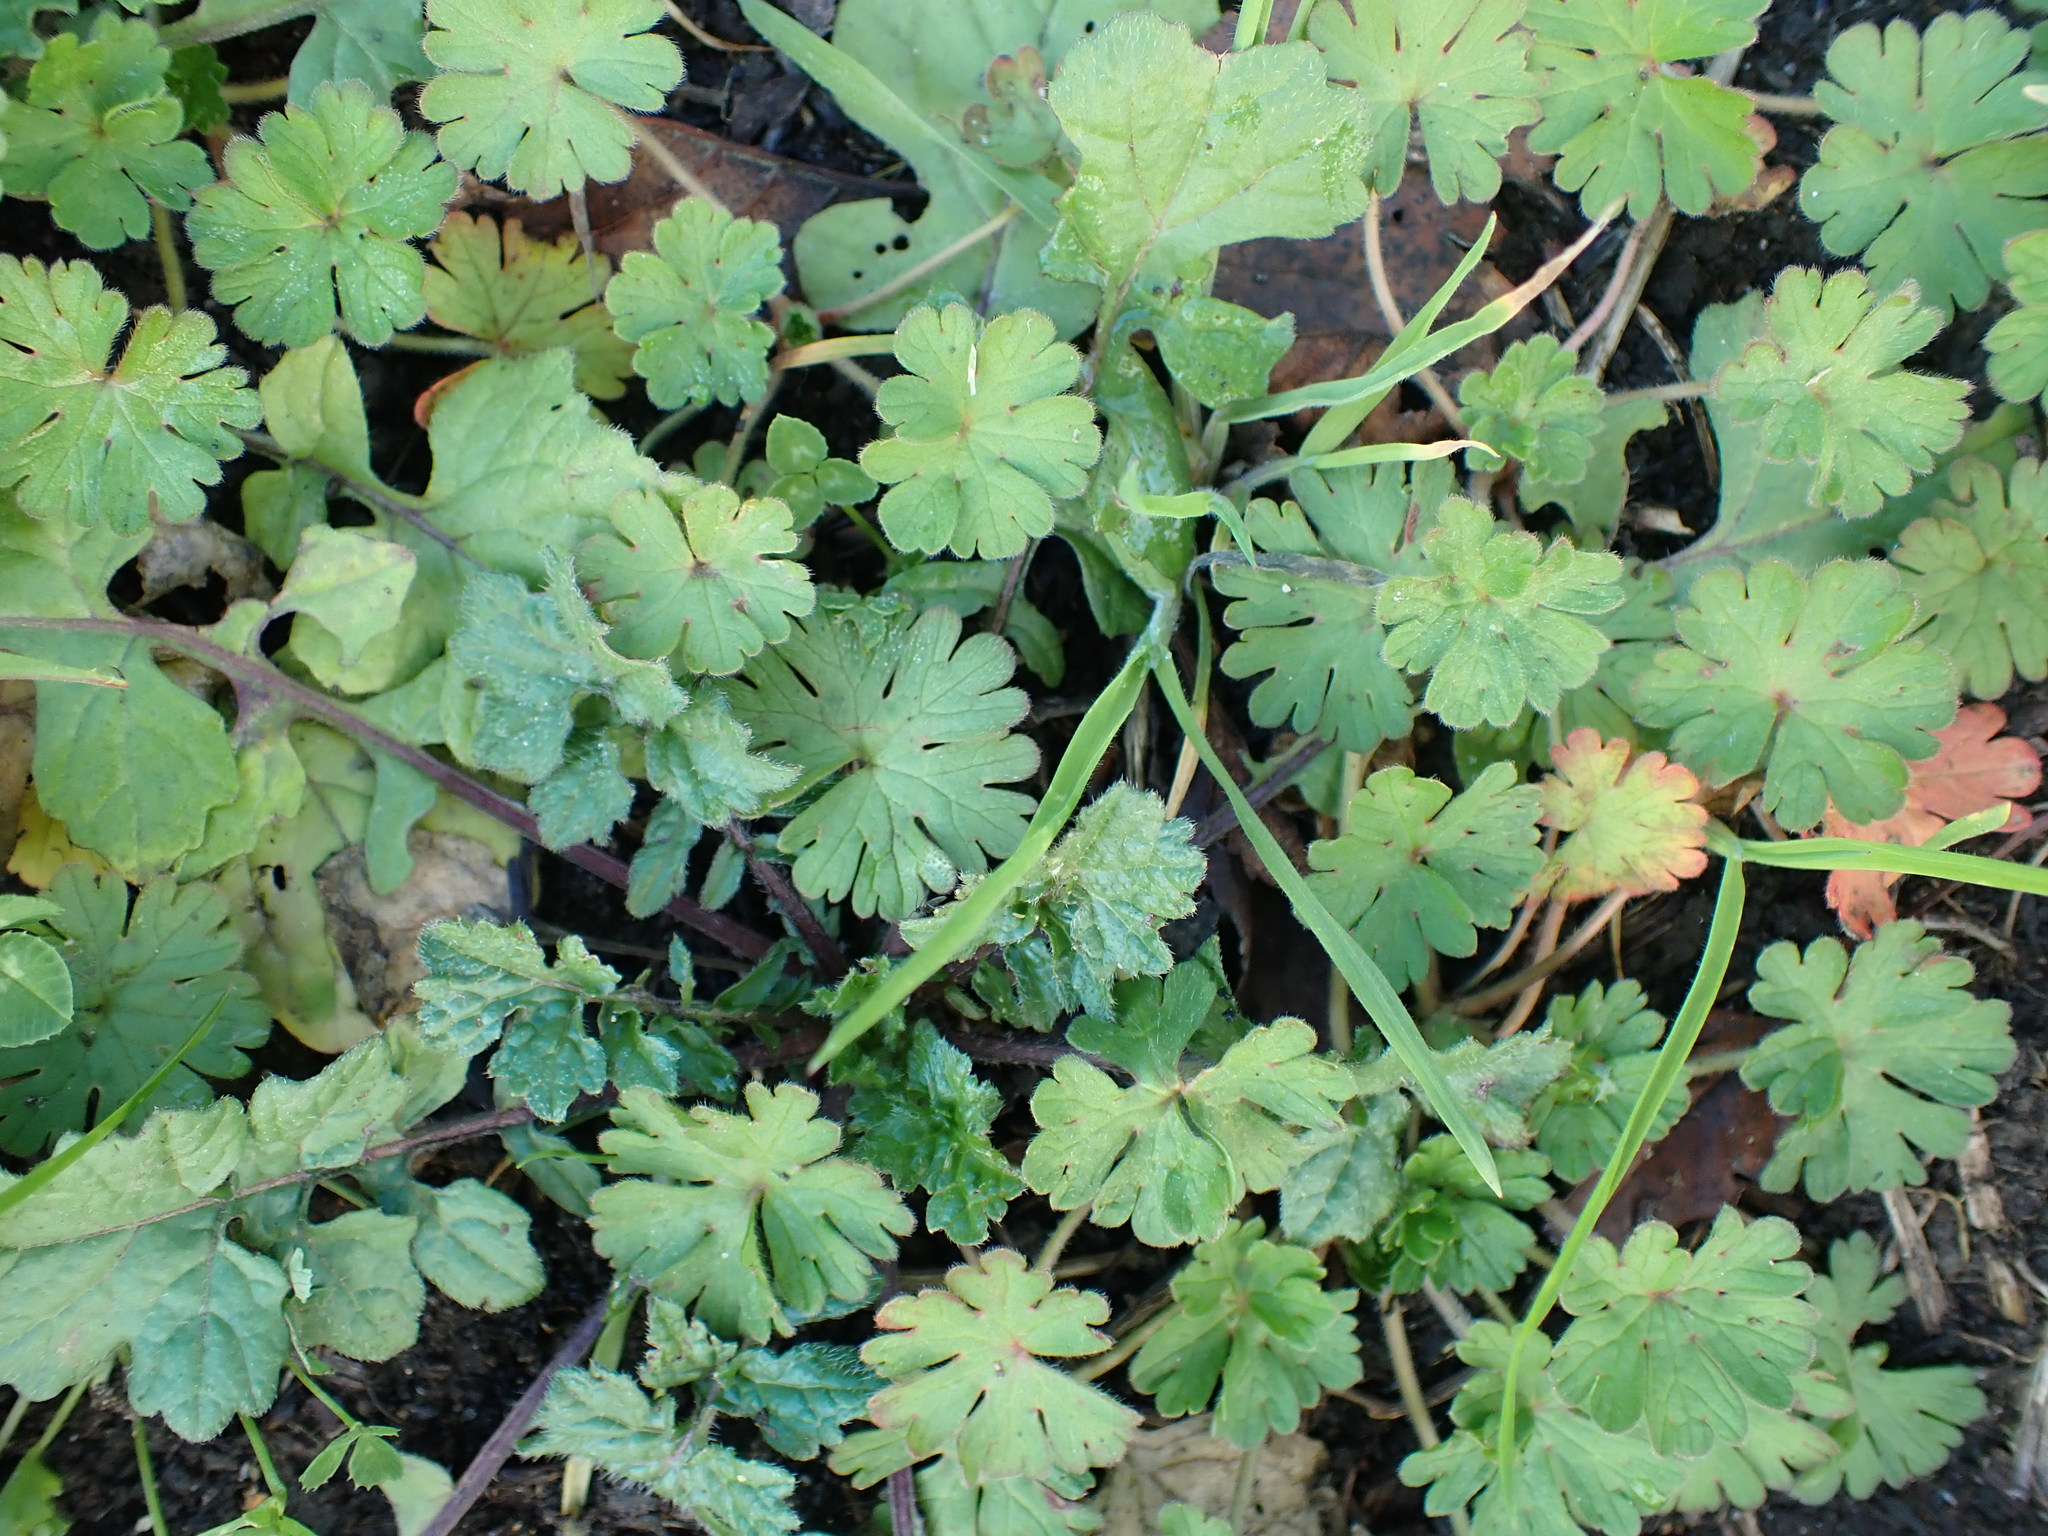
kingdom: Plantae
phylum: Tracheophyta
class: Magnoliopsida
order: Geraniales
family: Geraniaceae
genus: Geranium
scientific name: Geranium molle
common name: Dove's-foot crane's-bill
